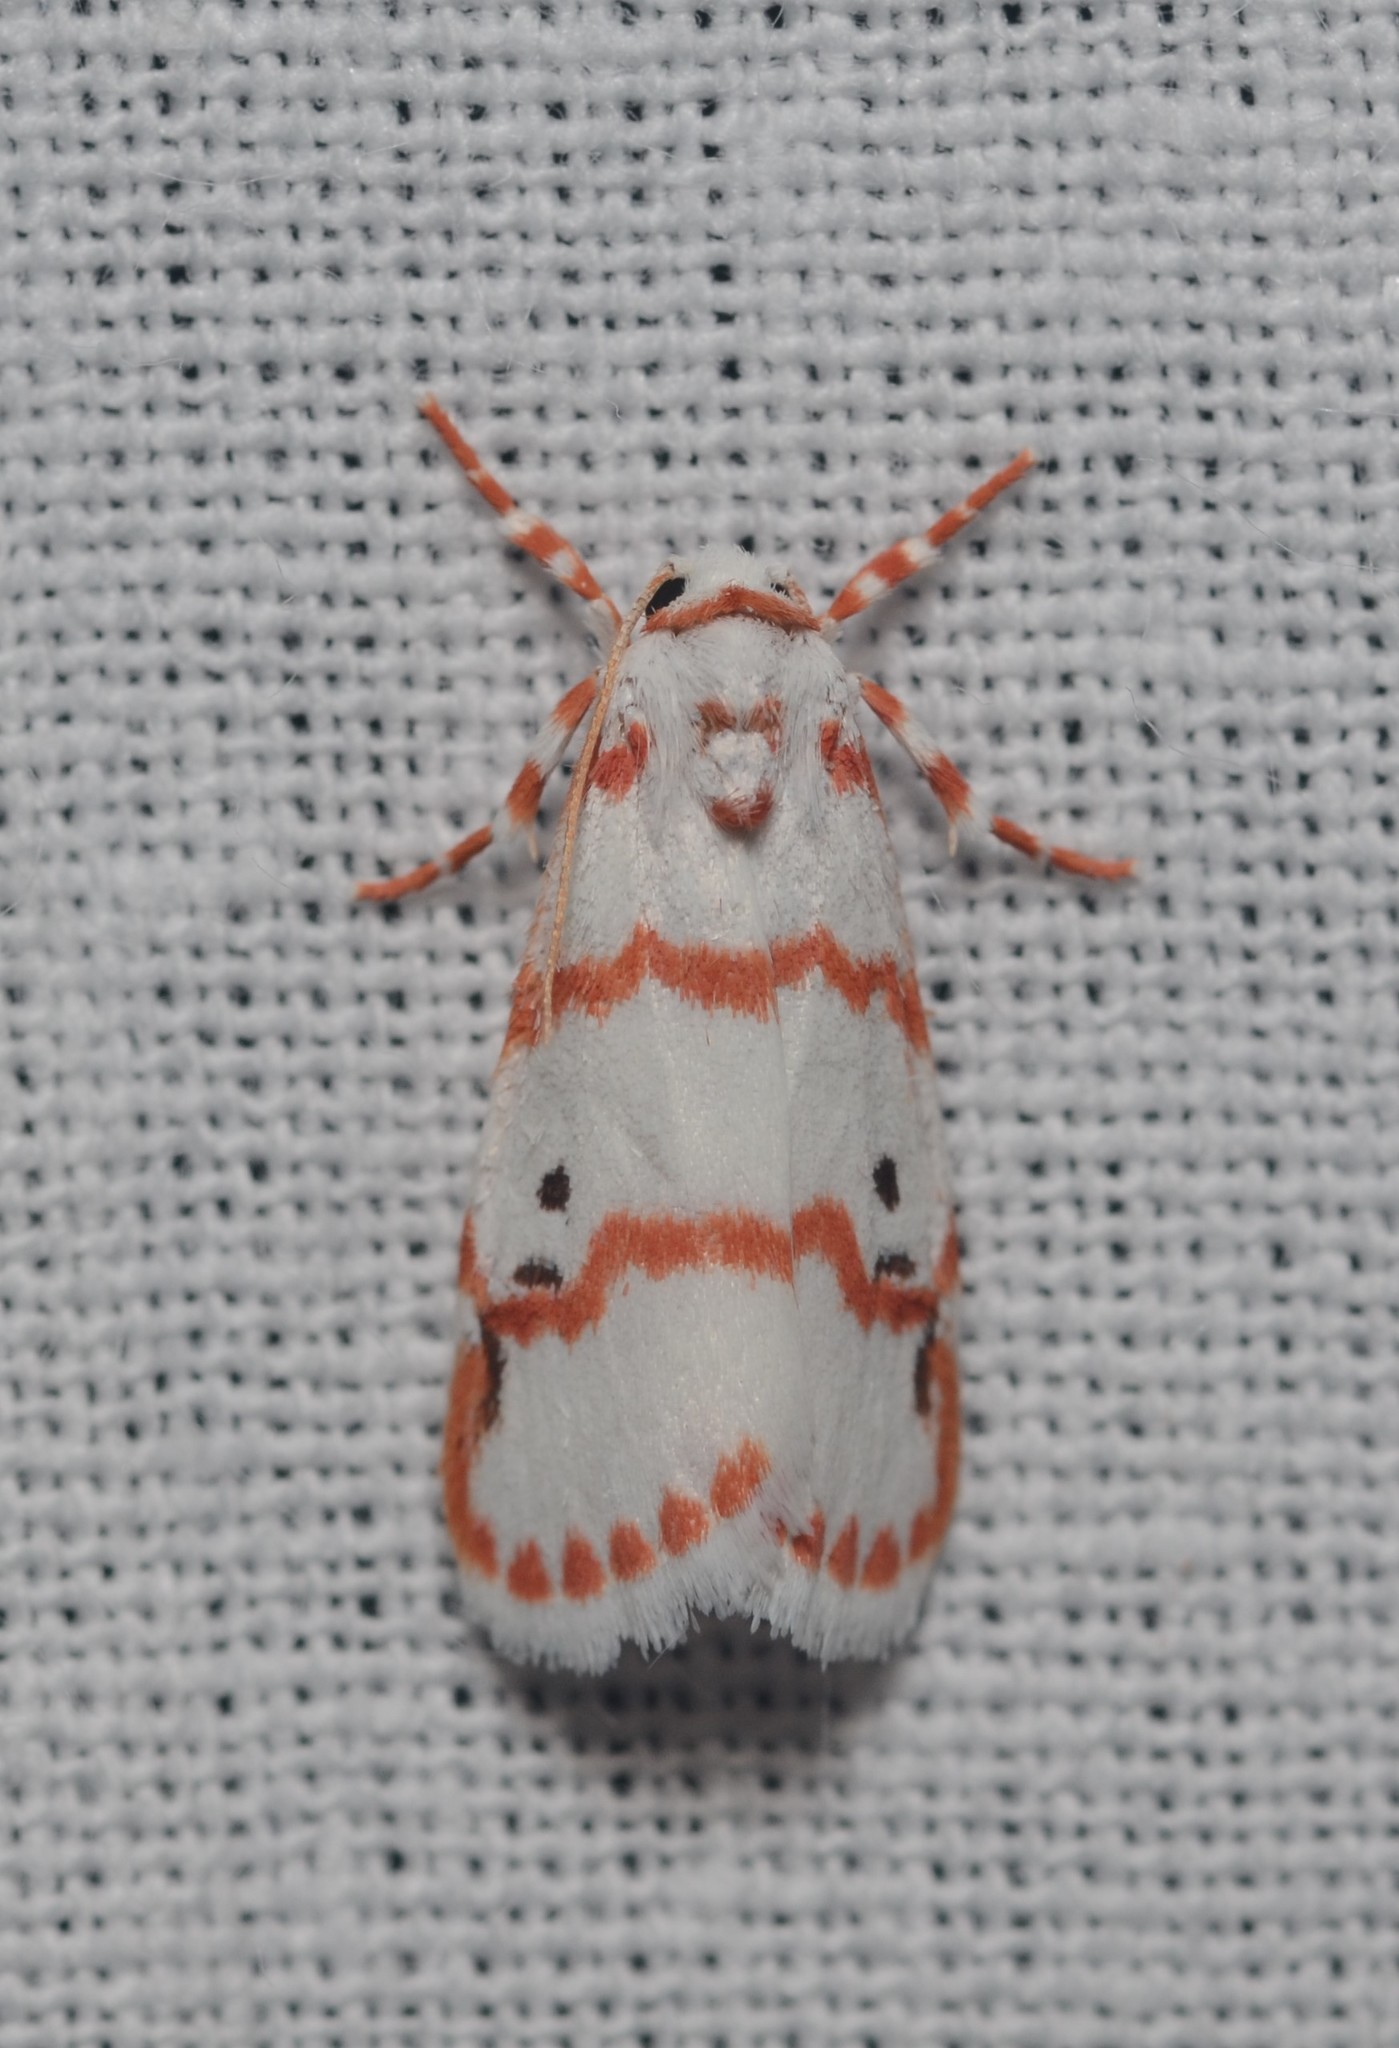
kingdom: Animalia
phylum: Arthropoda
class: Insecta
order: Lepidoptera
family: Erebidae
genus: Cyana
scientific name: Cyana amatura
